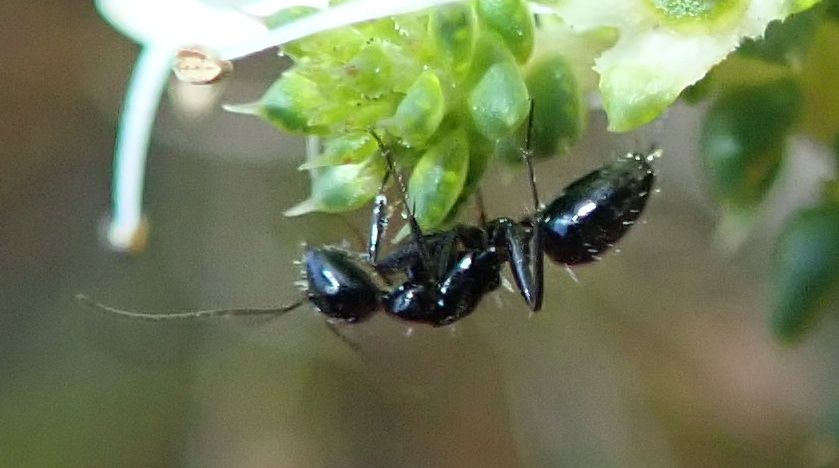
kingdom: Animalia
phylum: Arthropoda
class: Insecta
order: Hymenoptera
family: Formicidae
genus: Camponotus
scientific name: Camponotus niveosetosus
